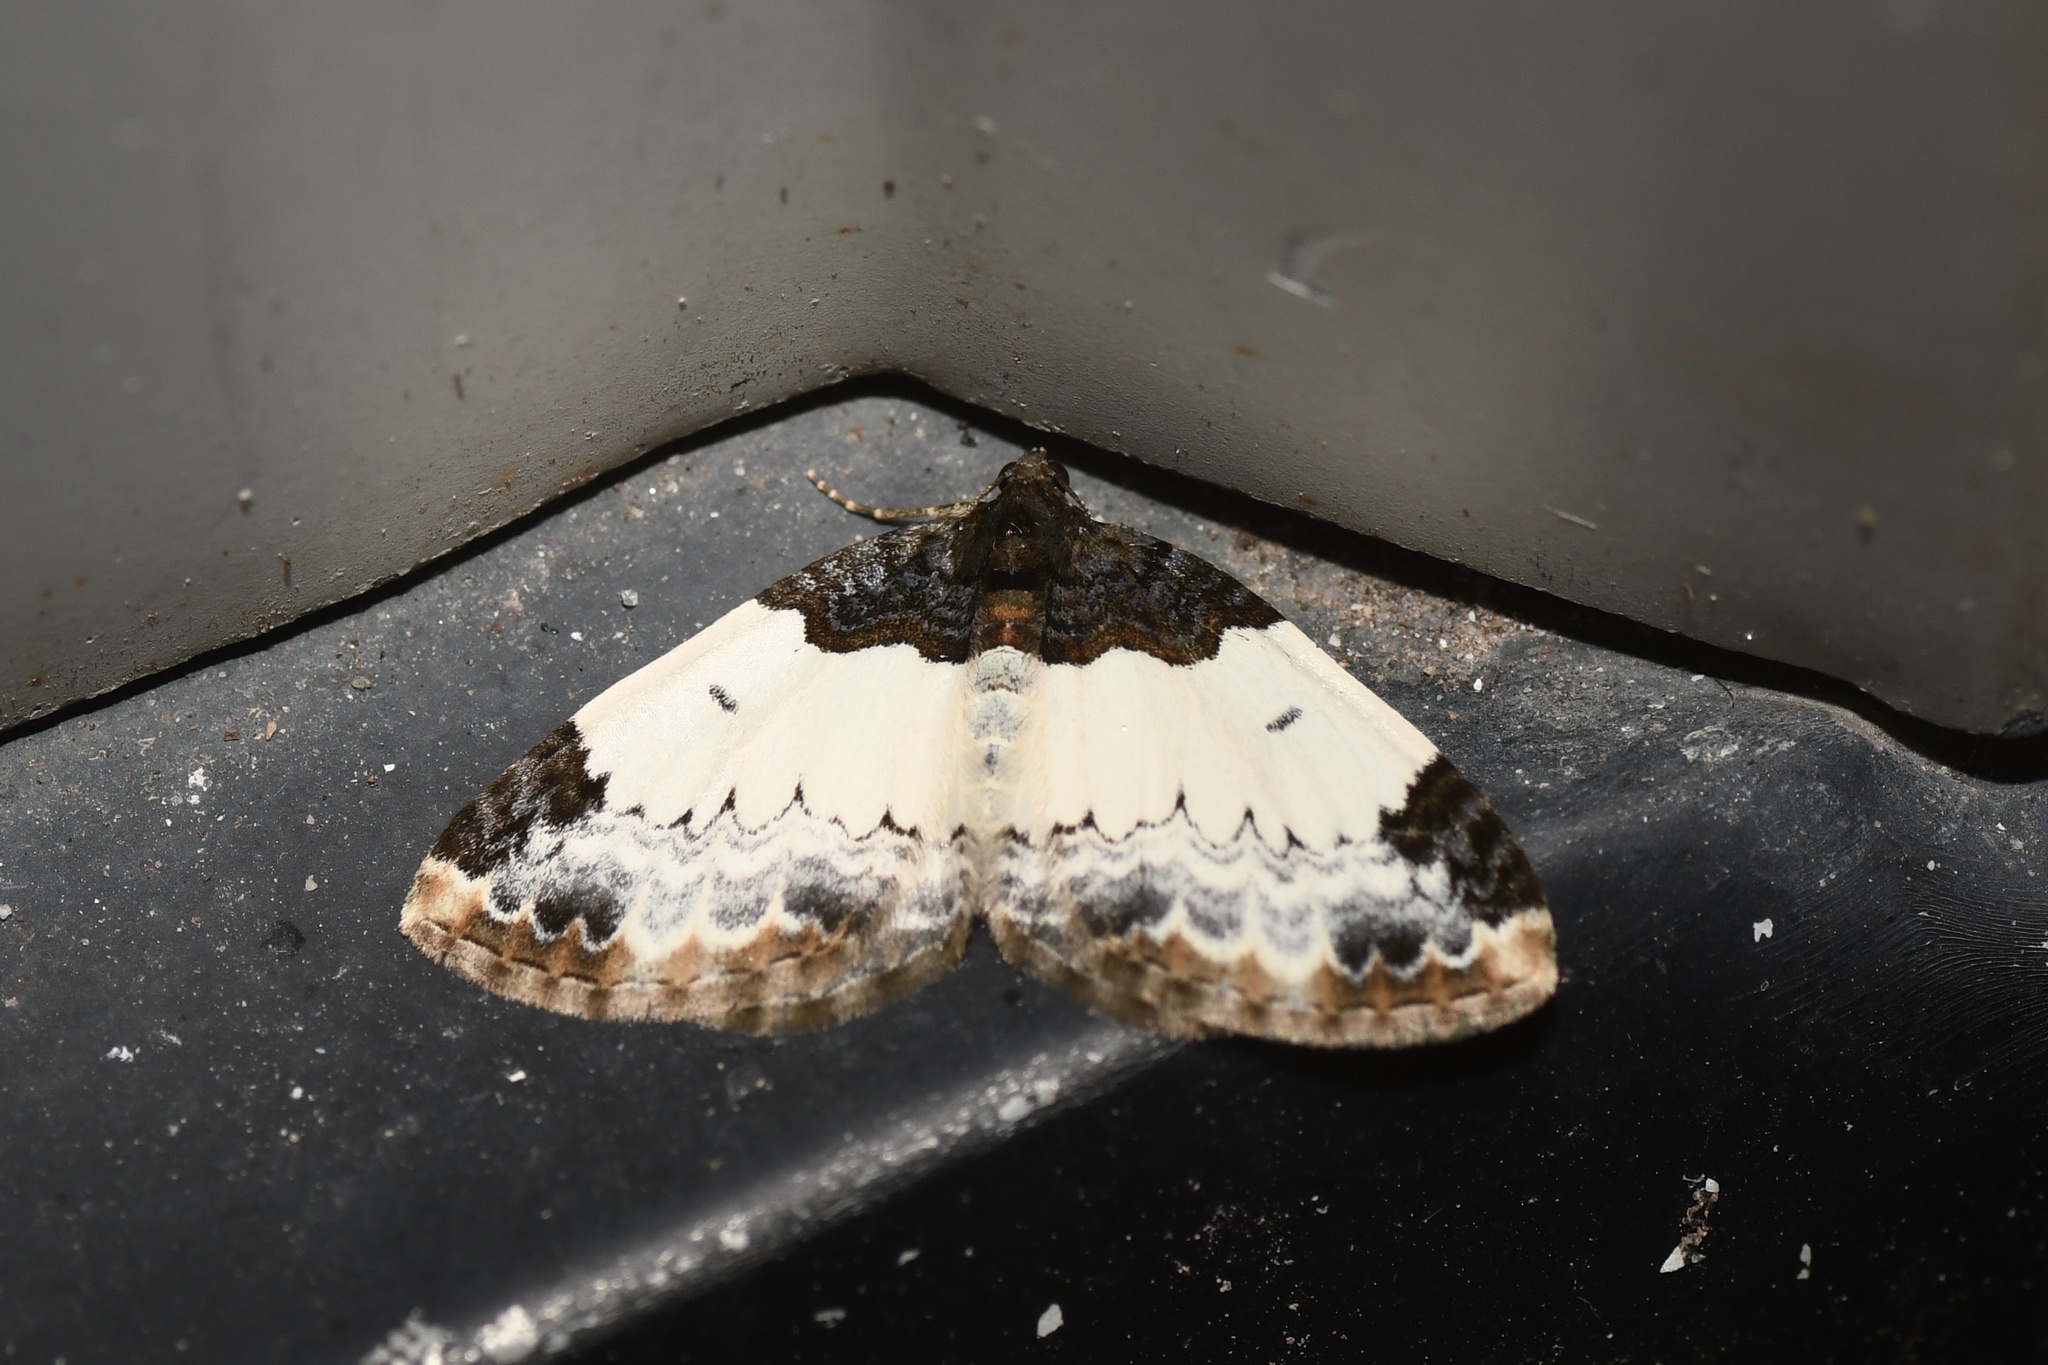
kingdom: Animalia
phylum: Arthropoda
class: Insecta
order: Lepidoptera
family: Geometridae
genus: Mesoleuca
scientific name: Mesoleuca ruficillata
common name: White-ribboned carpet moth
